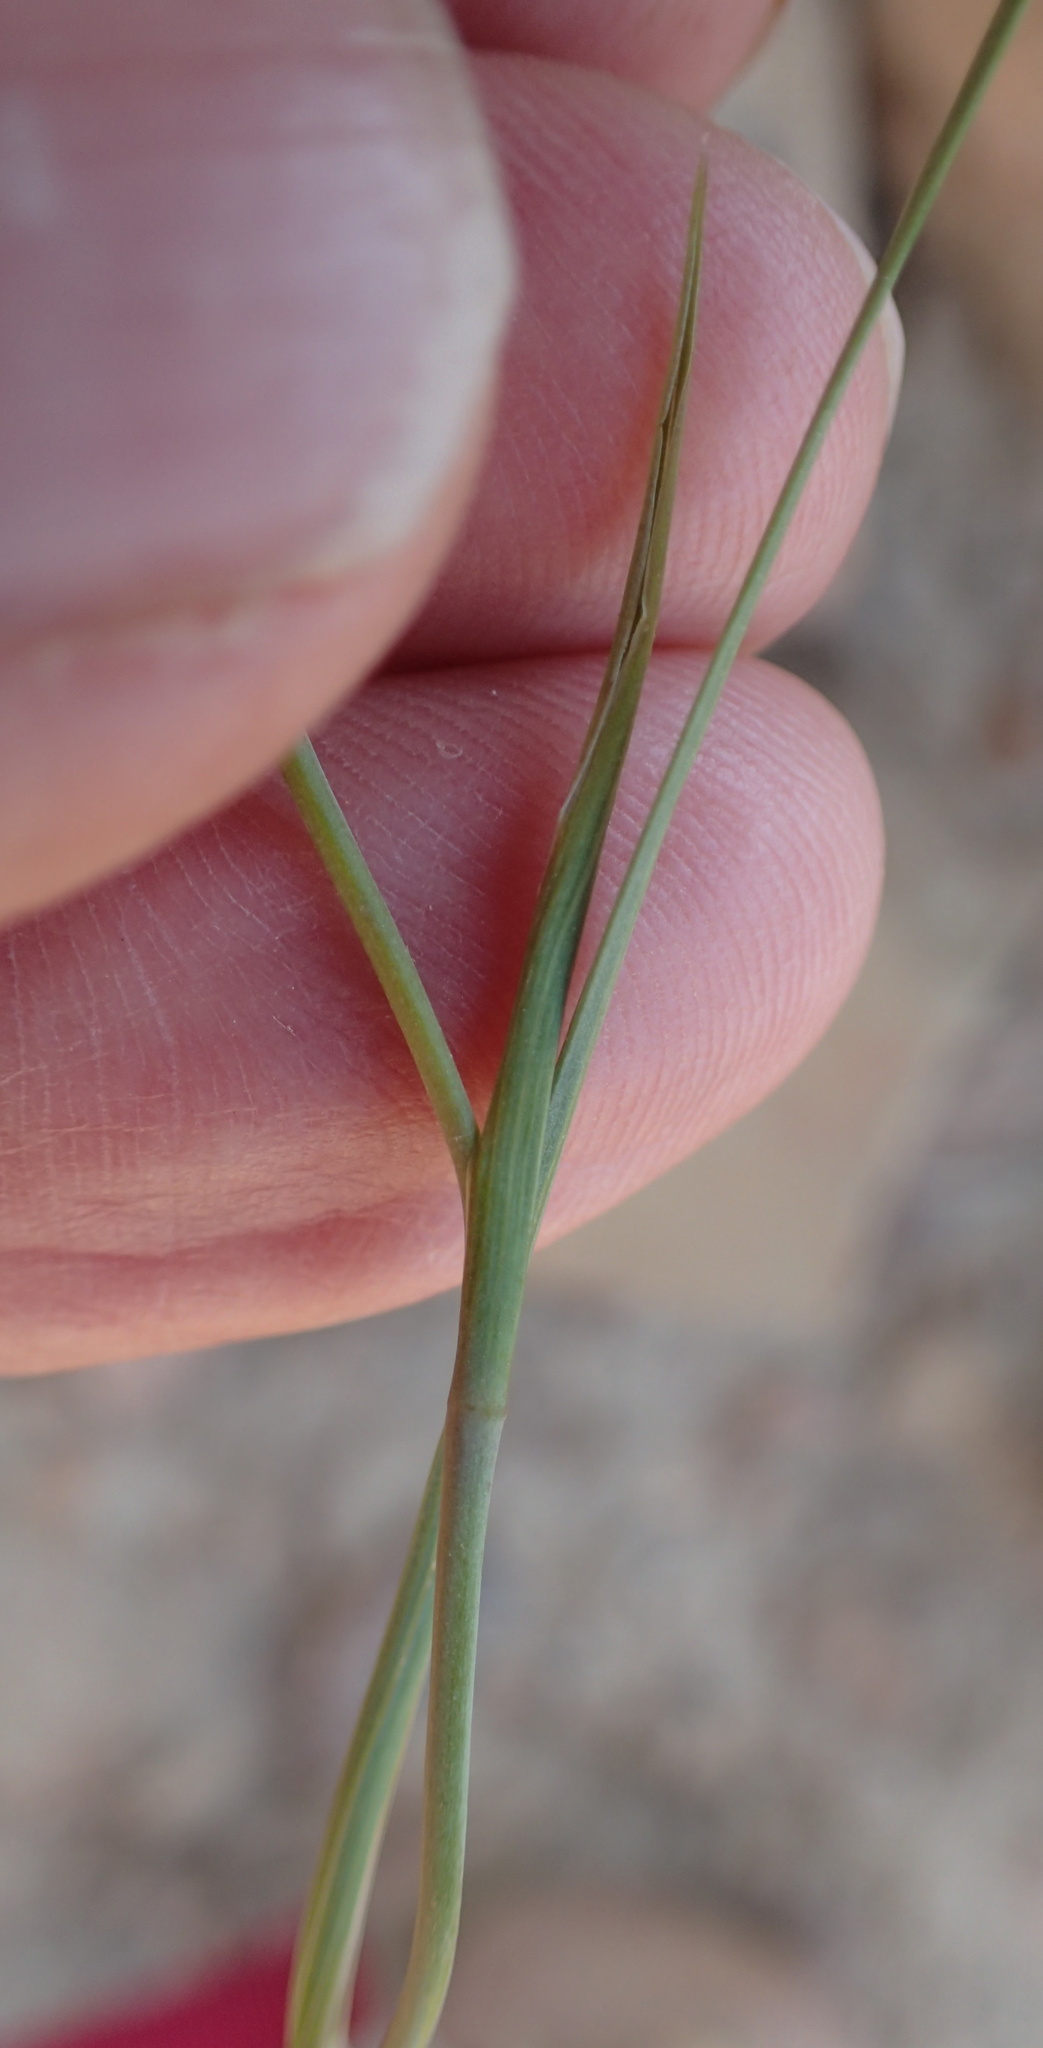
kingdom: Plantae
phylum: Tracheophyta
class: Liliopsida
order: Asparagales
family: Iridaceae
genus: Gladiolus
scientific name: Gladiolus venustus
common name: Purple kalkoentjie
